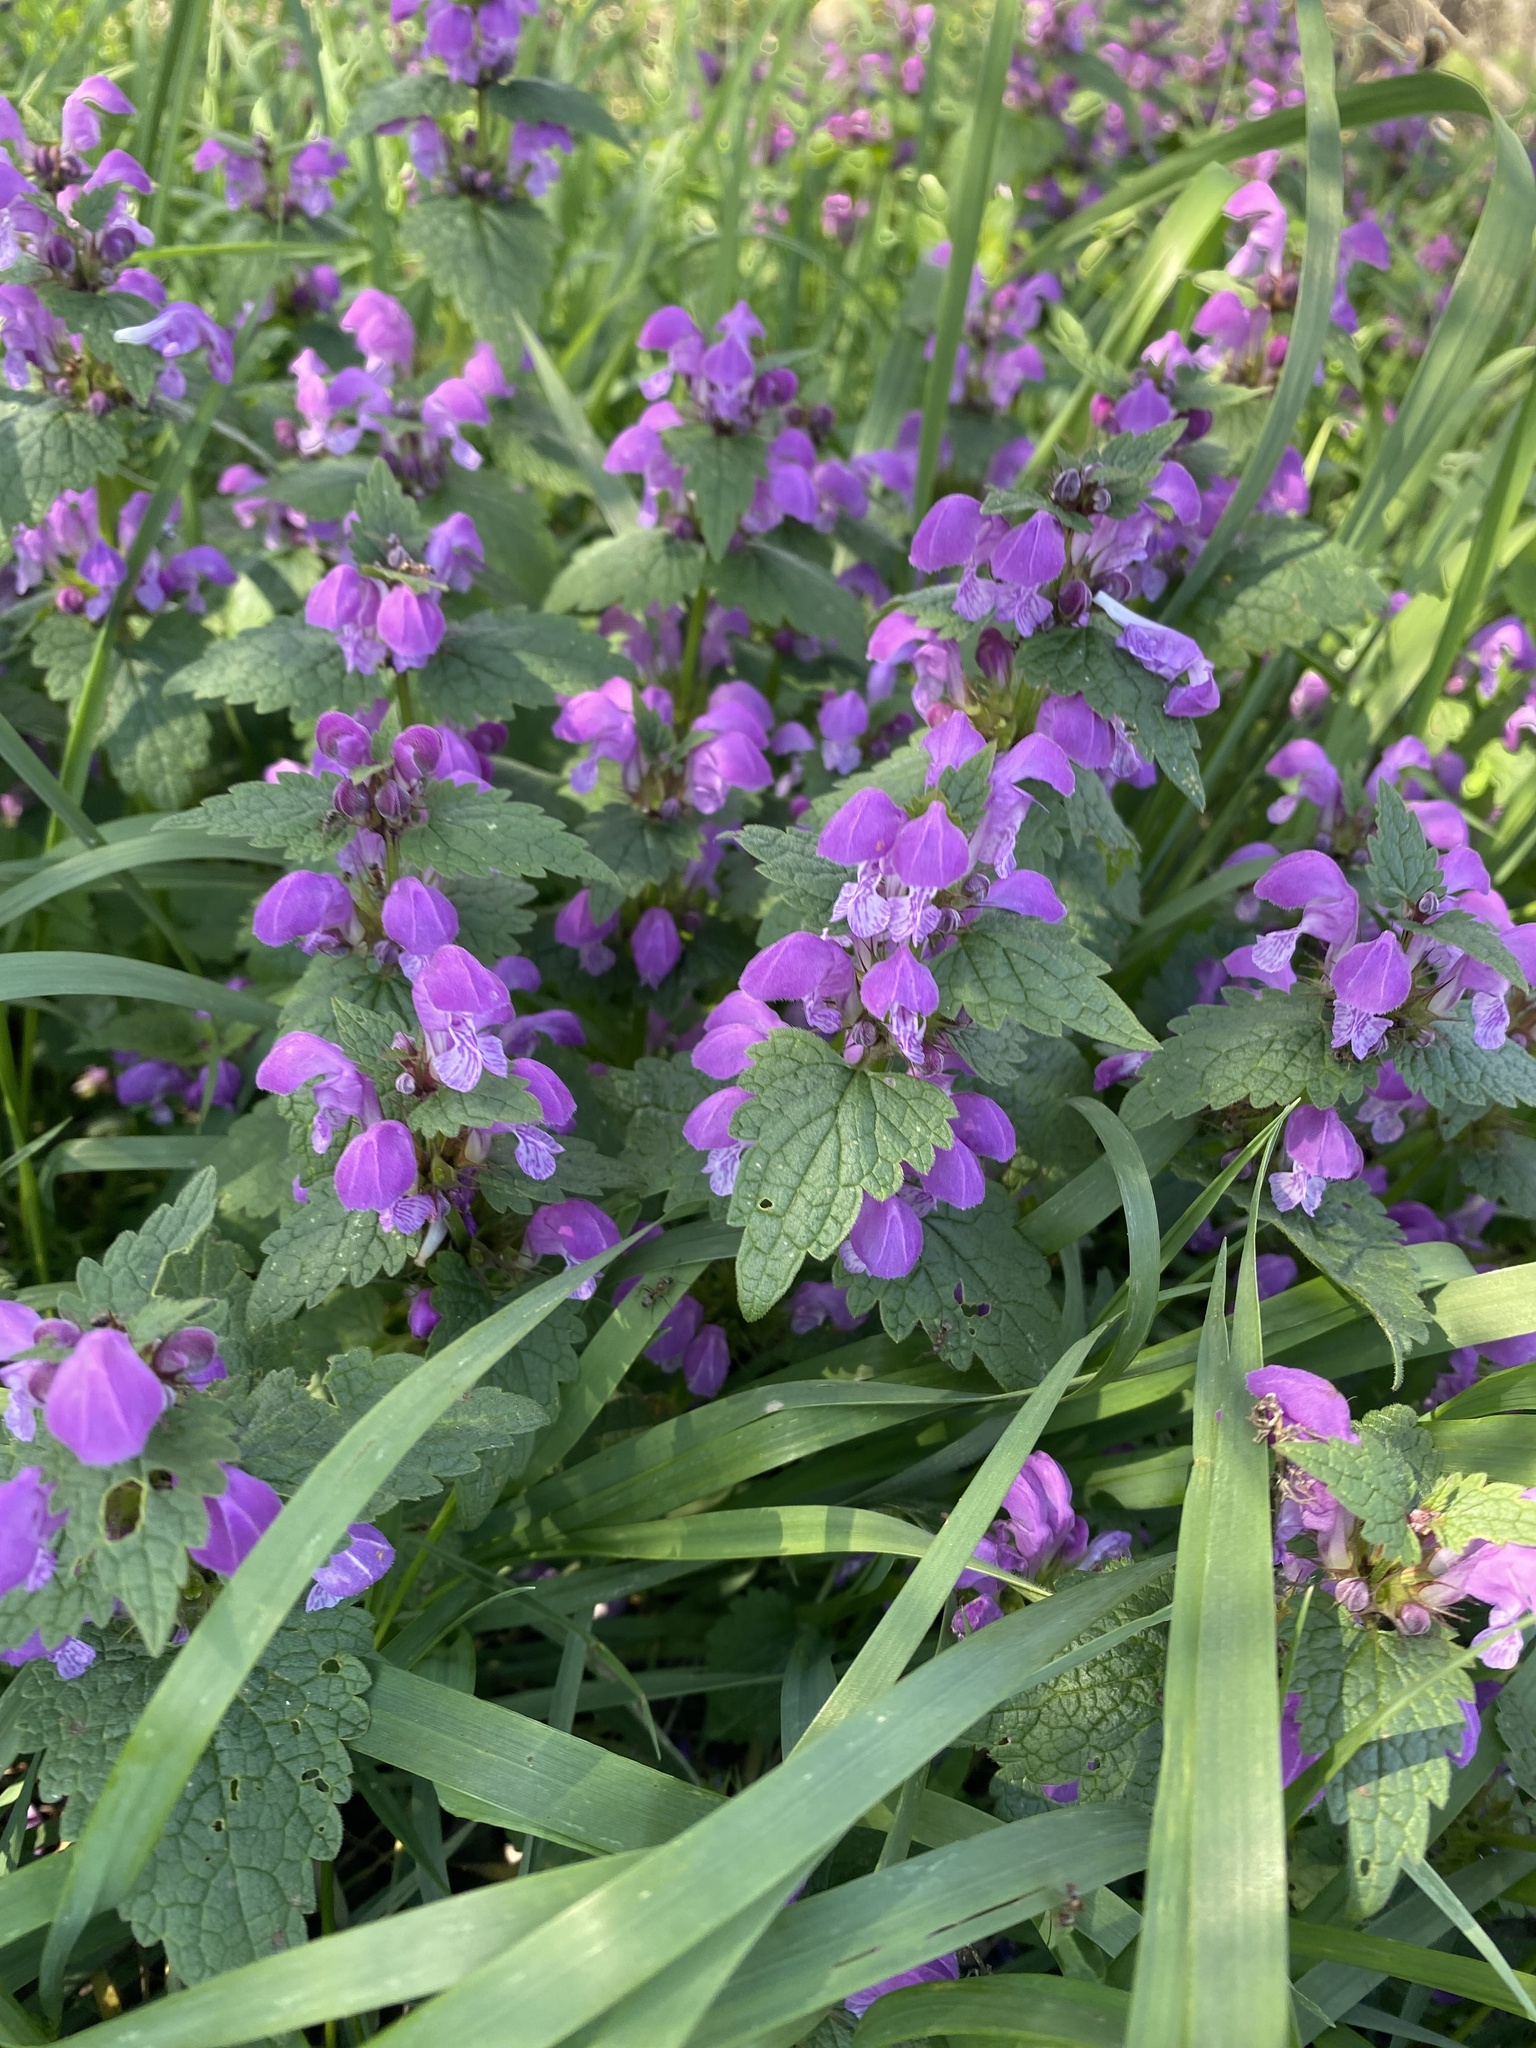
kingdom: Plantae
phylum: Tracheophyta
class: Magnoliopsida
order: Lamiales
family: Lamiaceae
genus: Lamium
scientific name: Lamium maculatum
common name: Spotted dead-nettle
